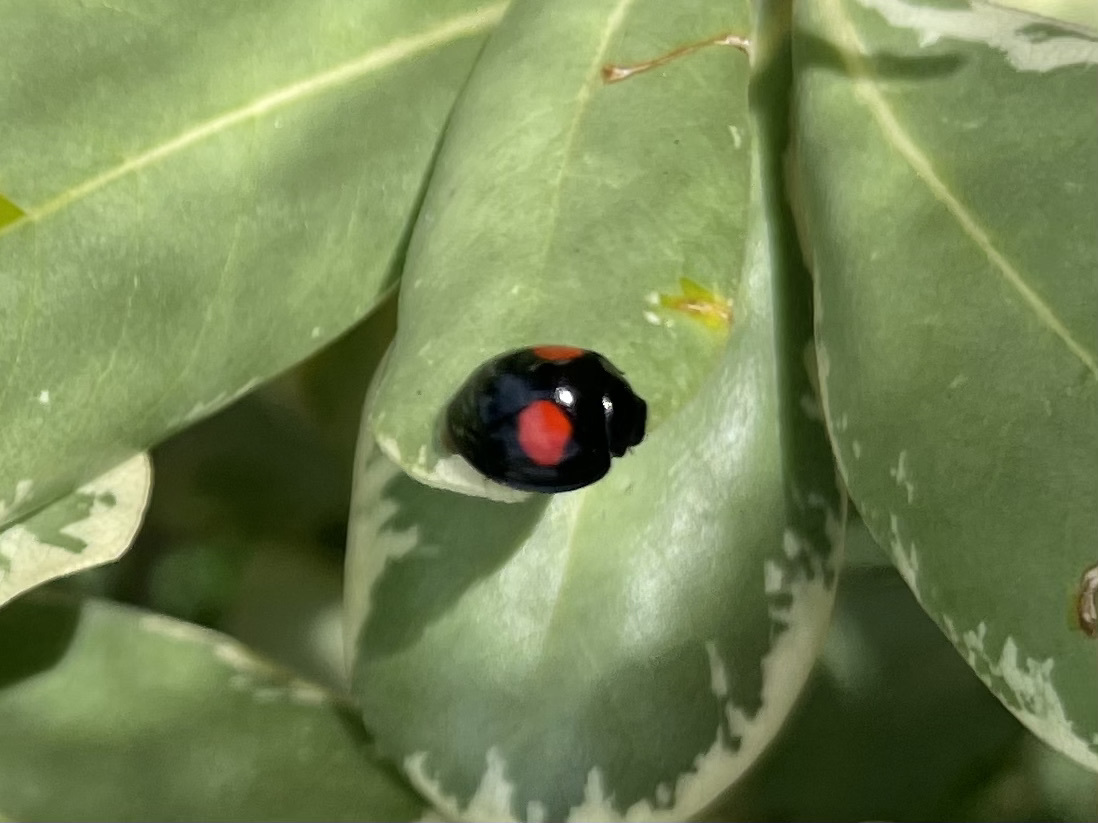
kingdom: Animalia
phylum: Arthropoda
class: Insecta
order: Coleoptera
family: Coccinellidae
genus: Chilocorus
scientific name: Chilocorus cacti
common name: Cactus lady beetle
